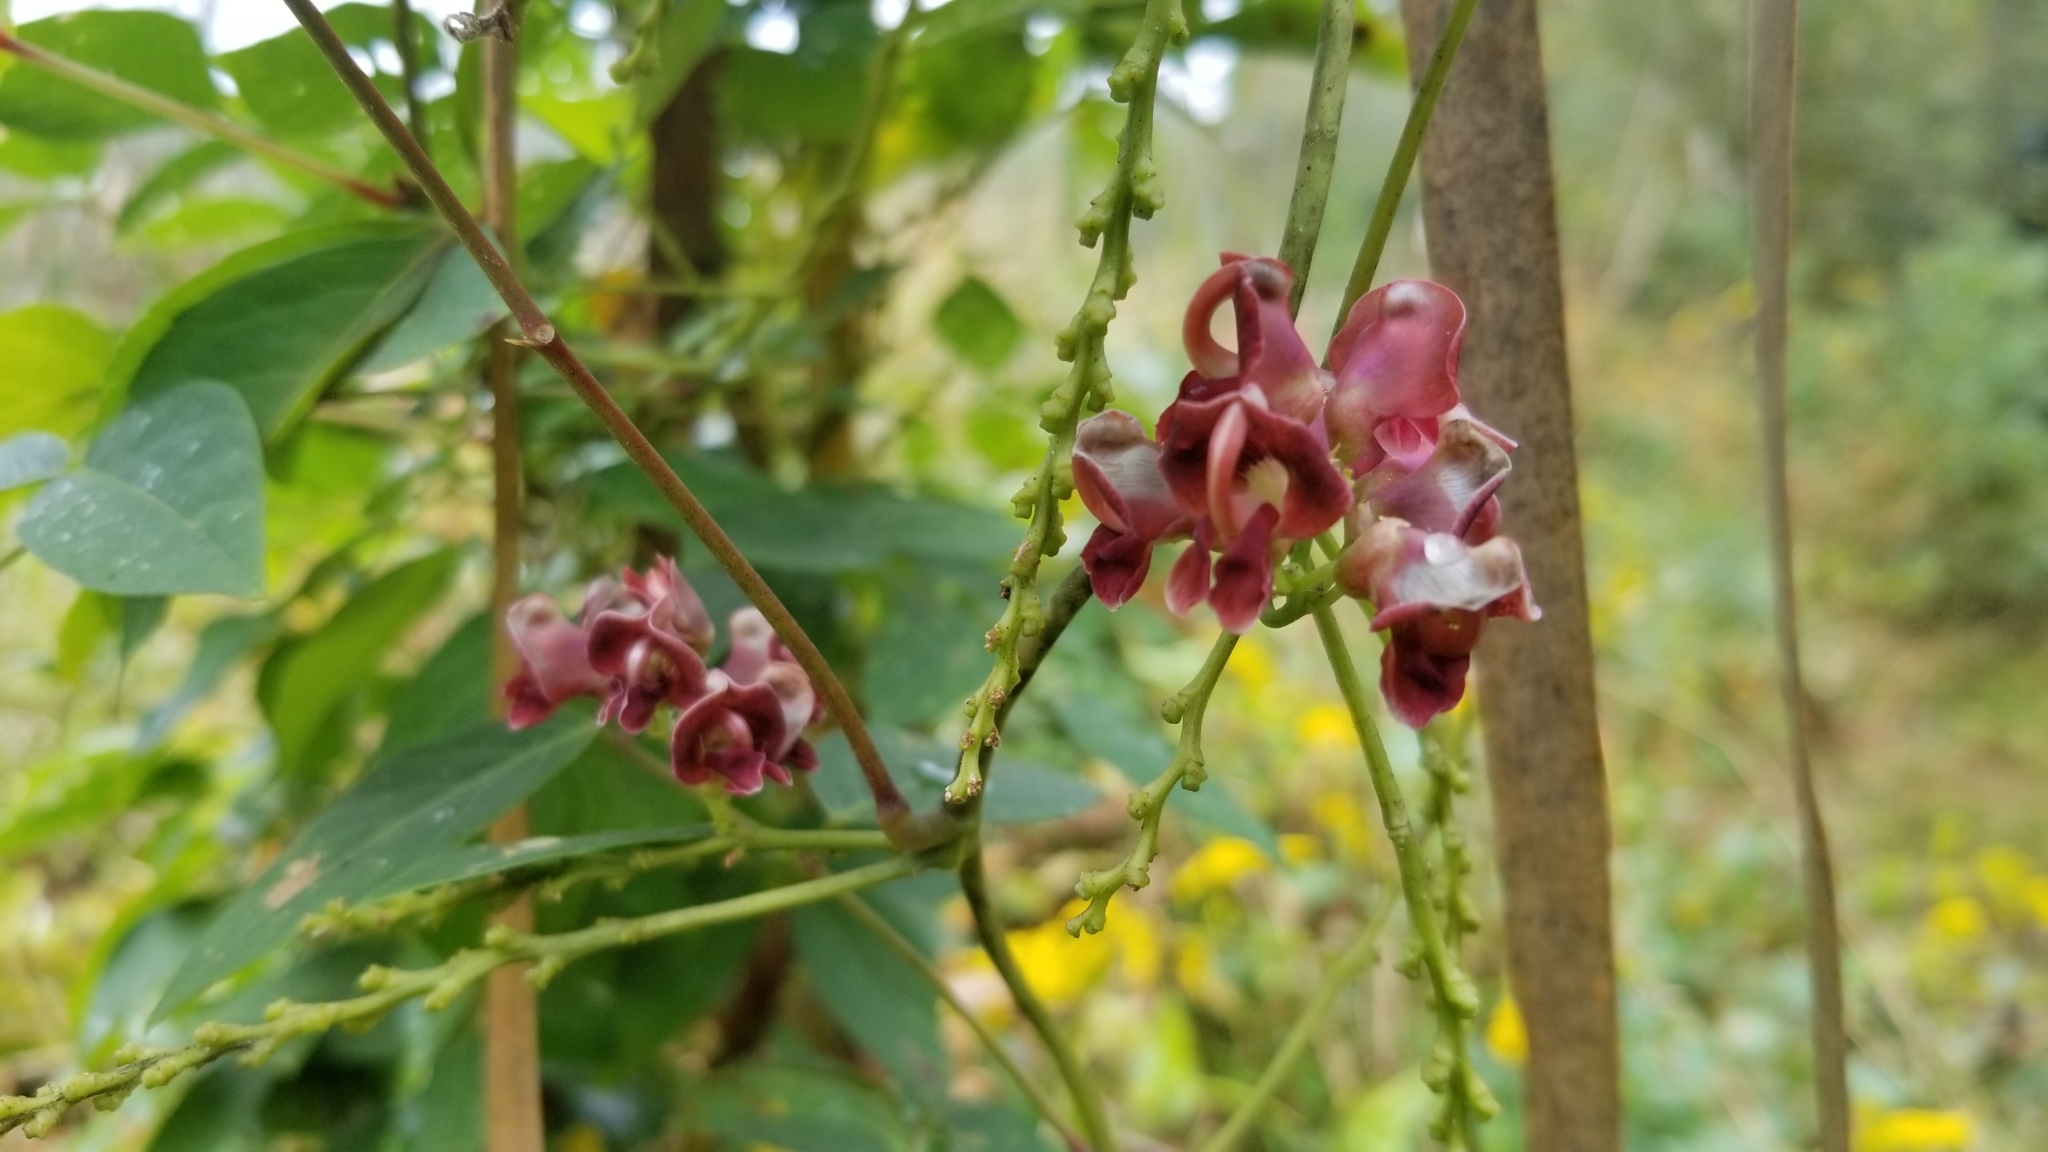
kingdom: Plantae
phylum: Tracheophyta
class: Magnoliopsida
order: Fabales
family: Fabaceae
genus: Apios
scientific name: Apios americana
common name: American potato-bean
